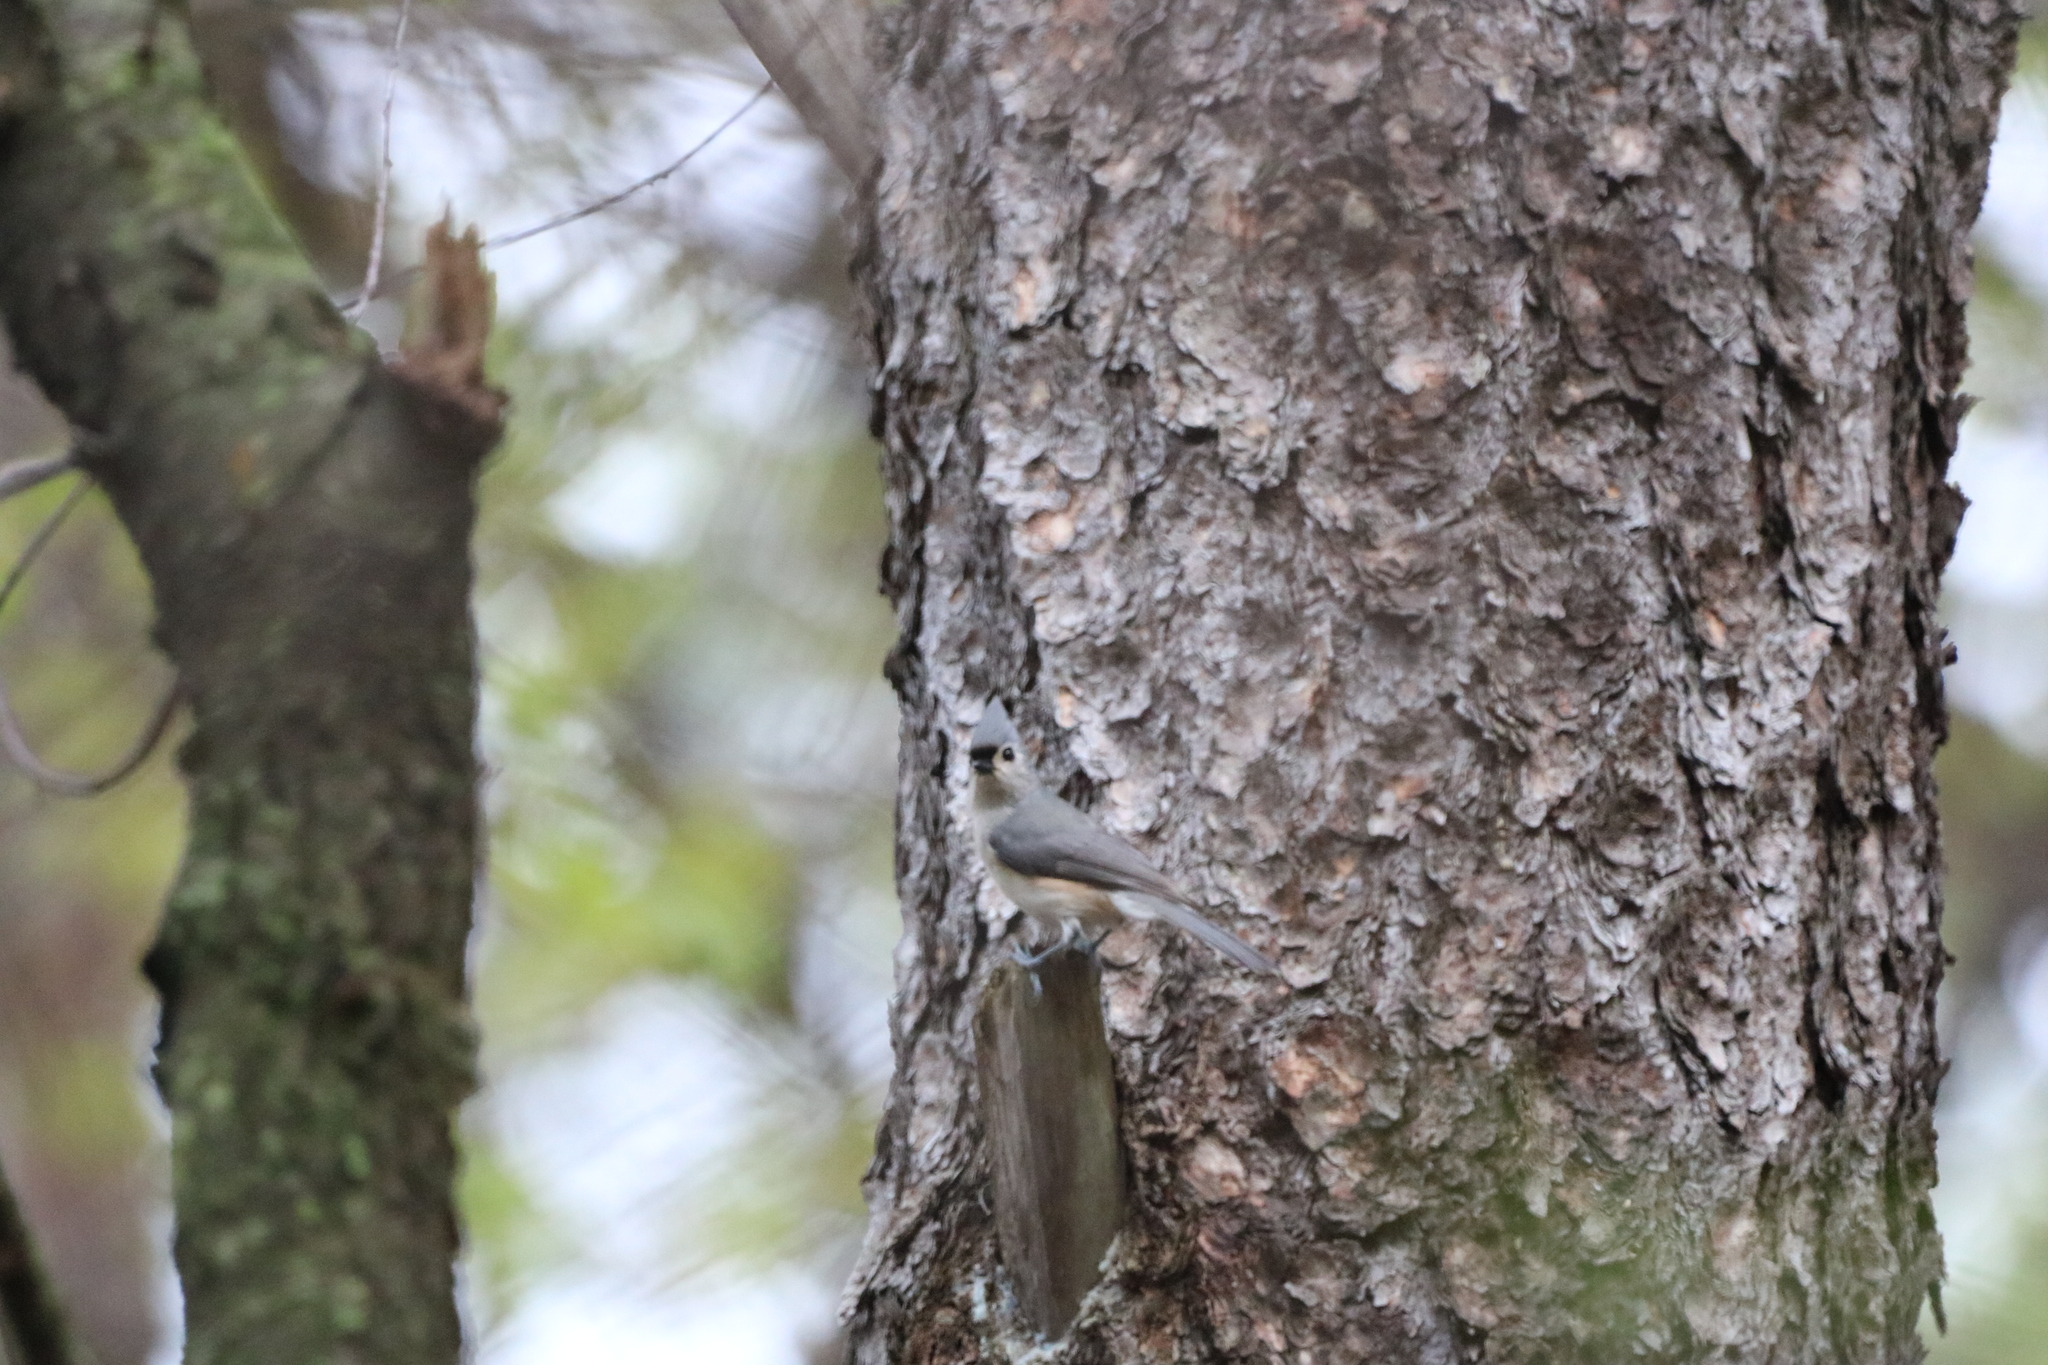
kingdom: Animalia
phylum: Chordata
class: Aves
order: Passeriformes
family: Paridae
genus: Baeolophus
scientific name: Baeolophus bicolor
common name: Tufted titmouse
